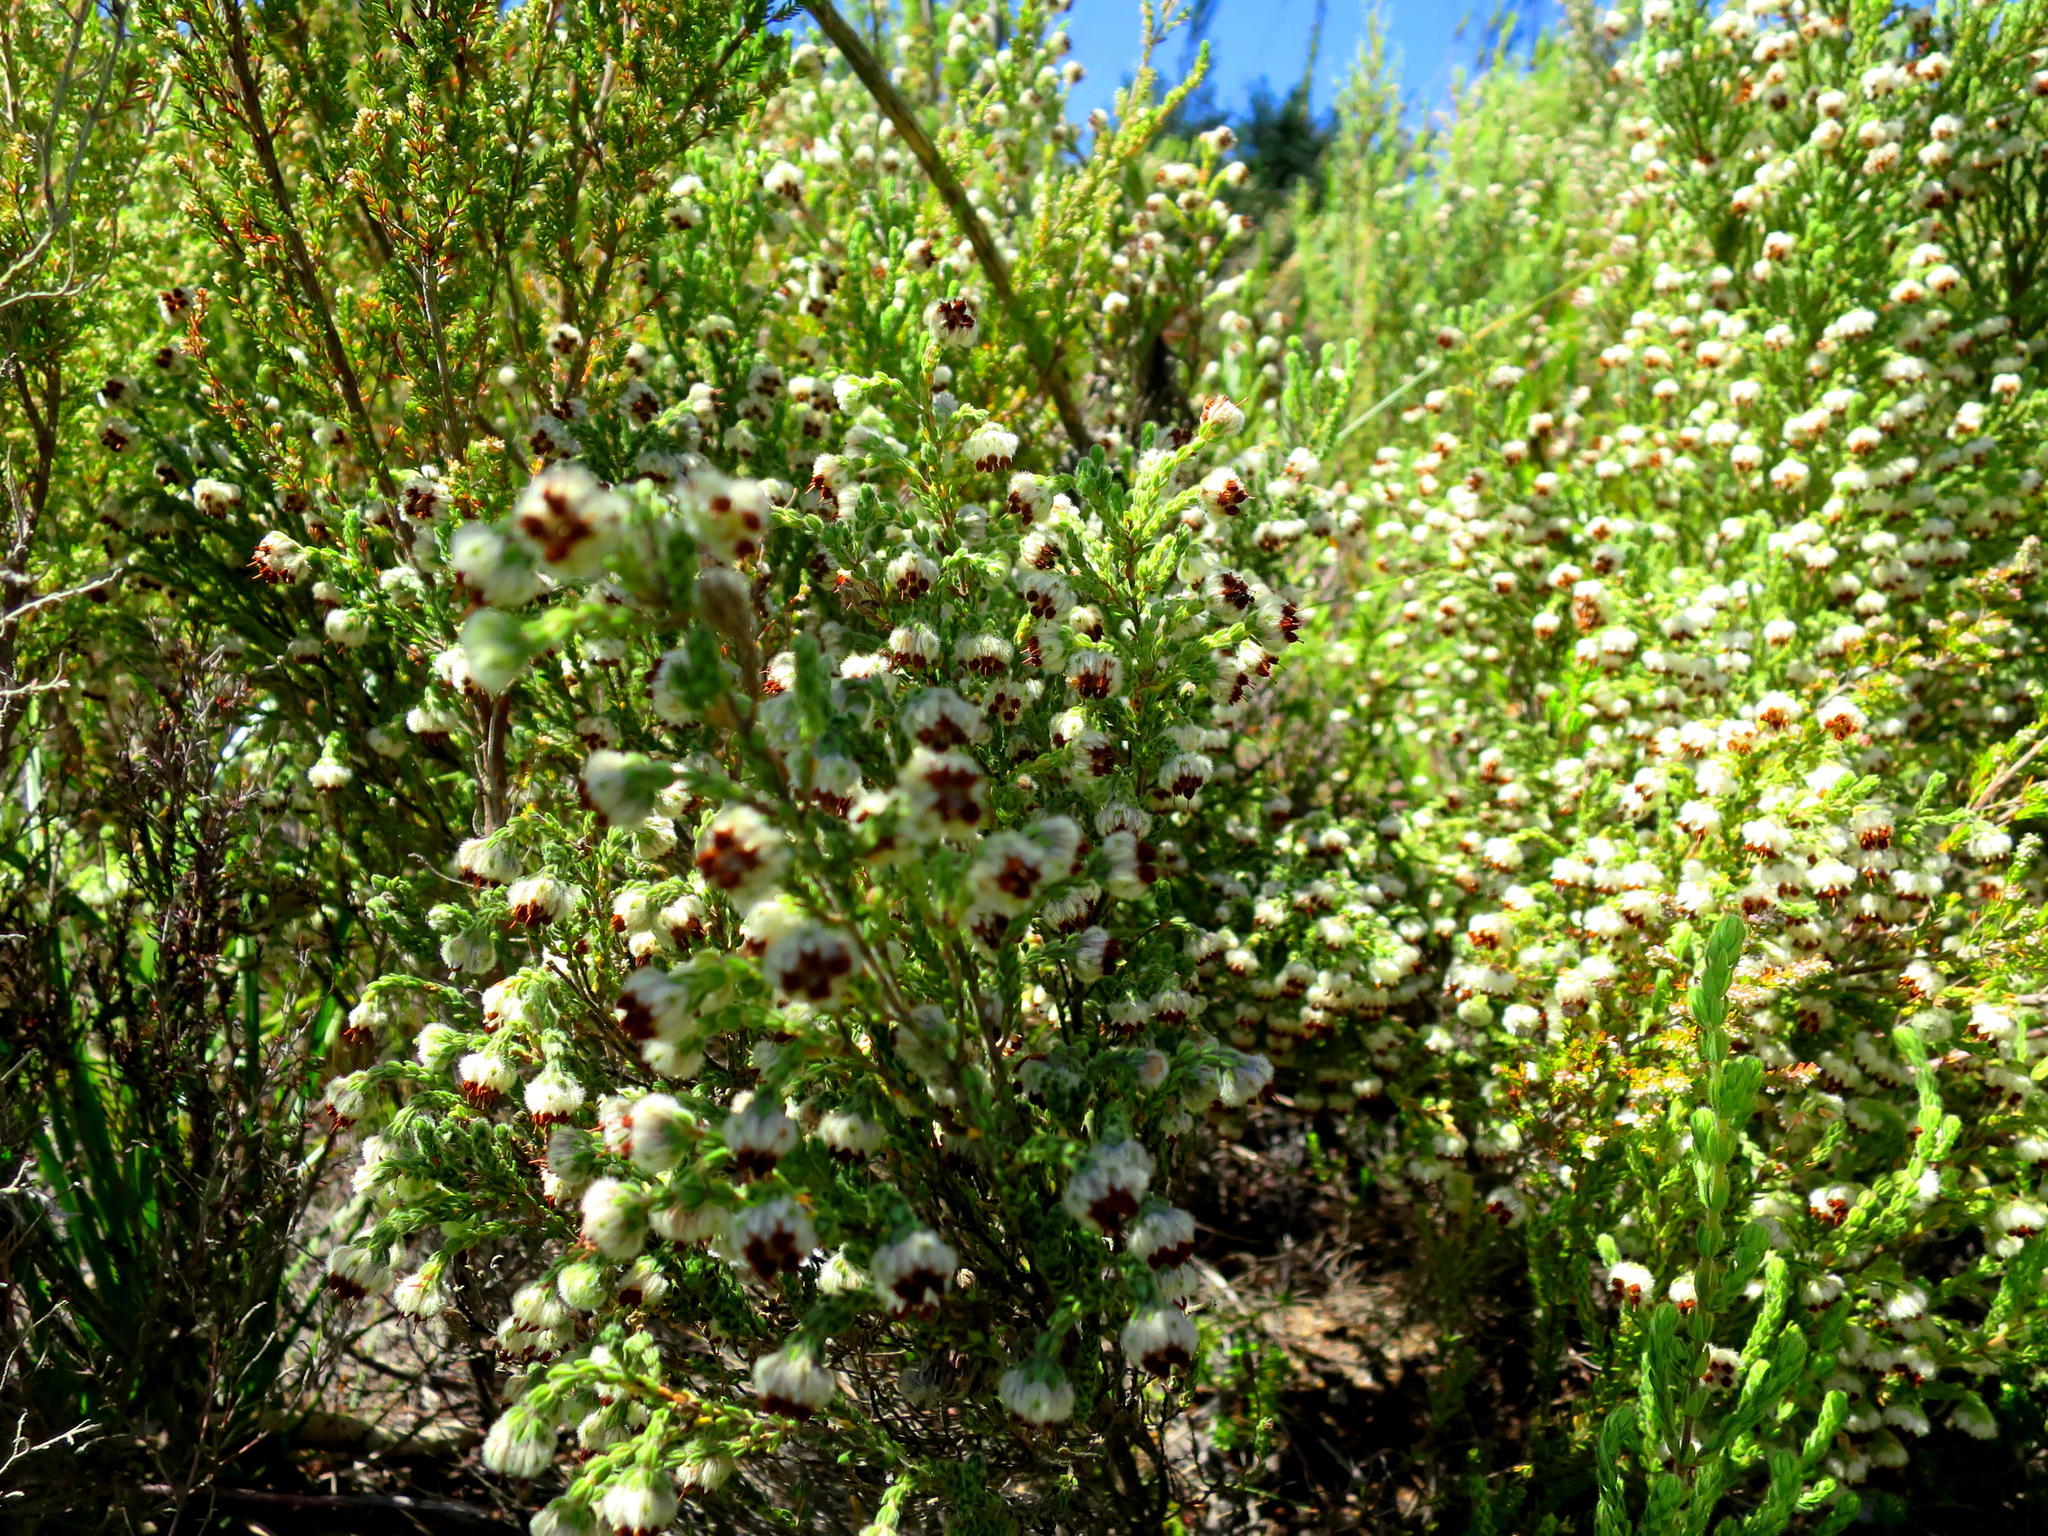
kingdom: Plantae
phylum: Tracheophyta
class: Magnoliopsida
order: Ericales
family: Ericaceae
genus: Erica
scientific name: Erica flaccida
